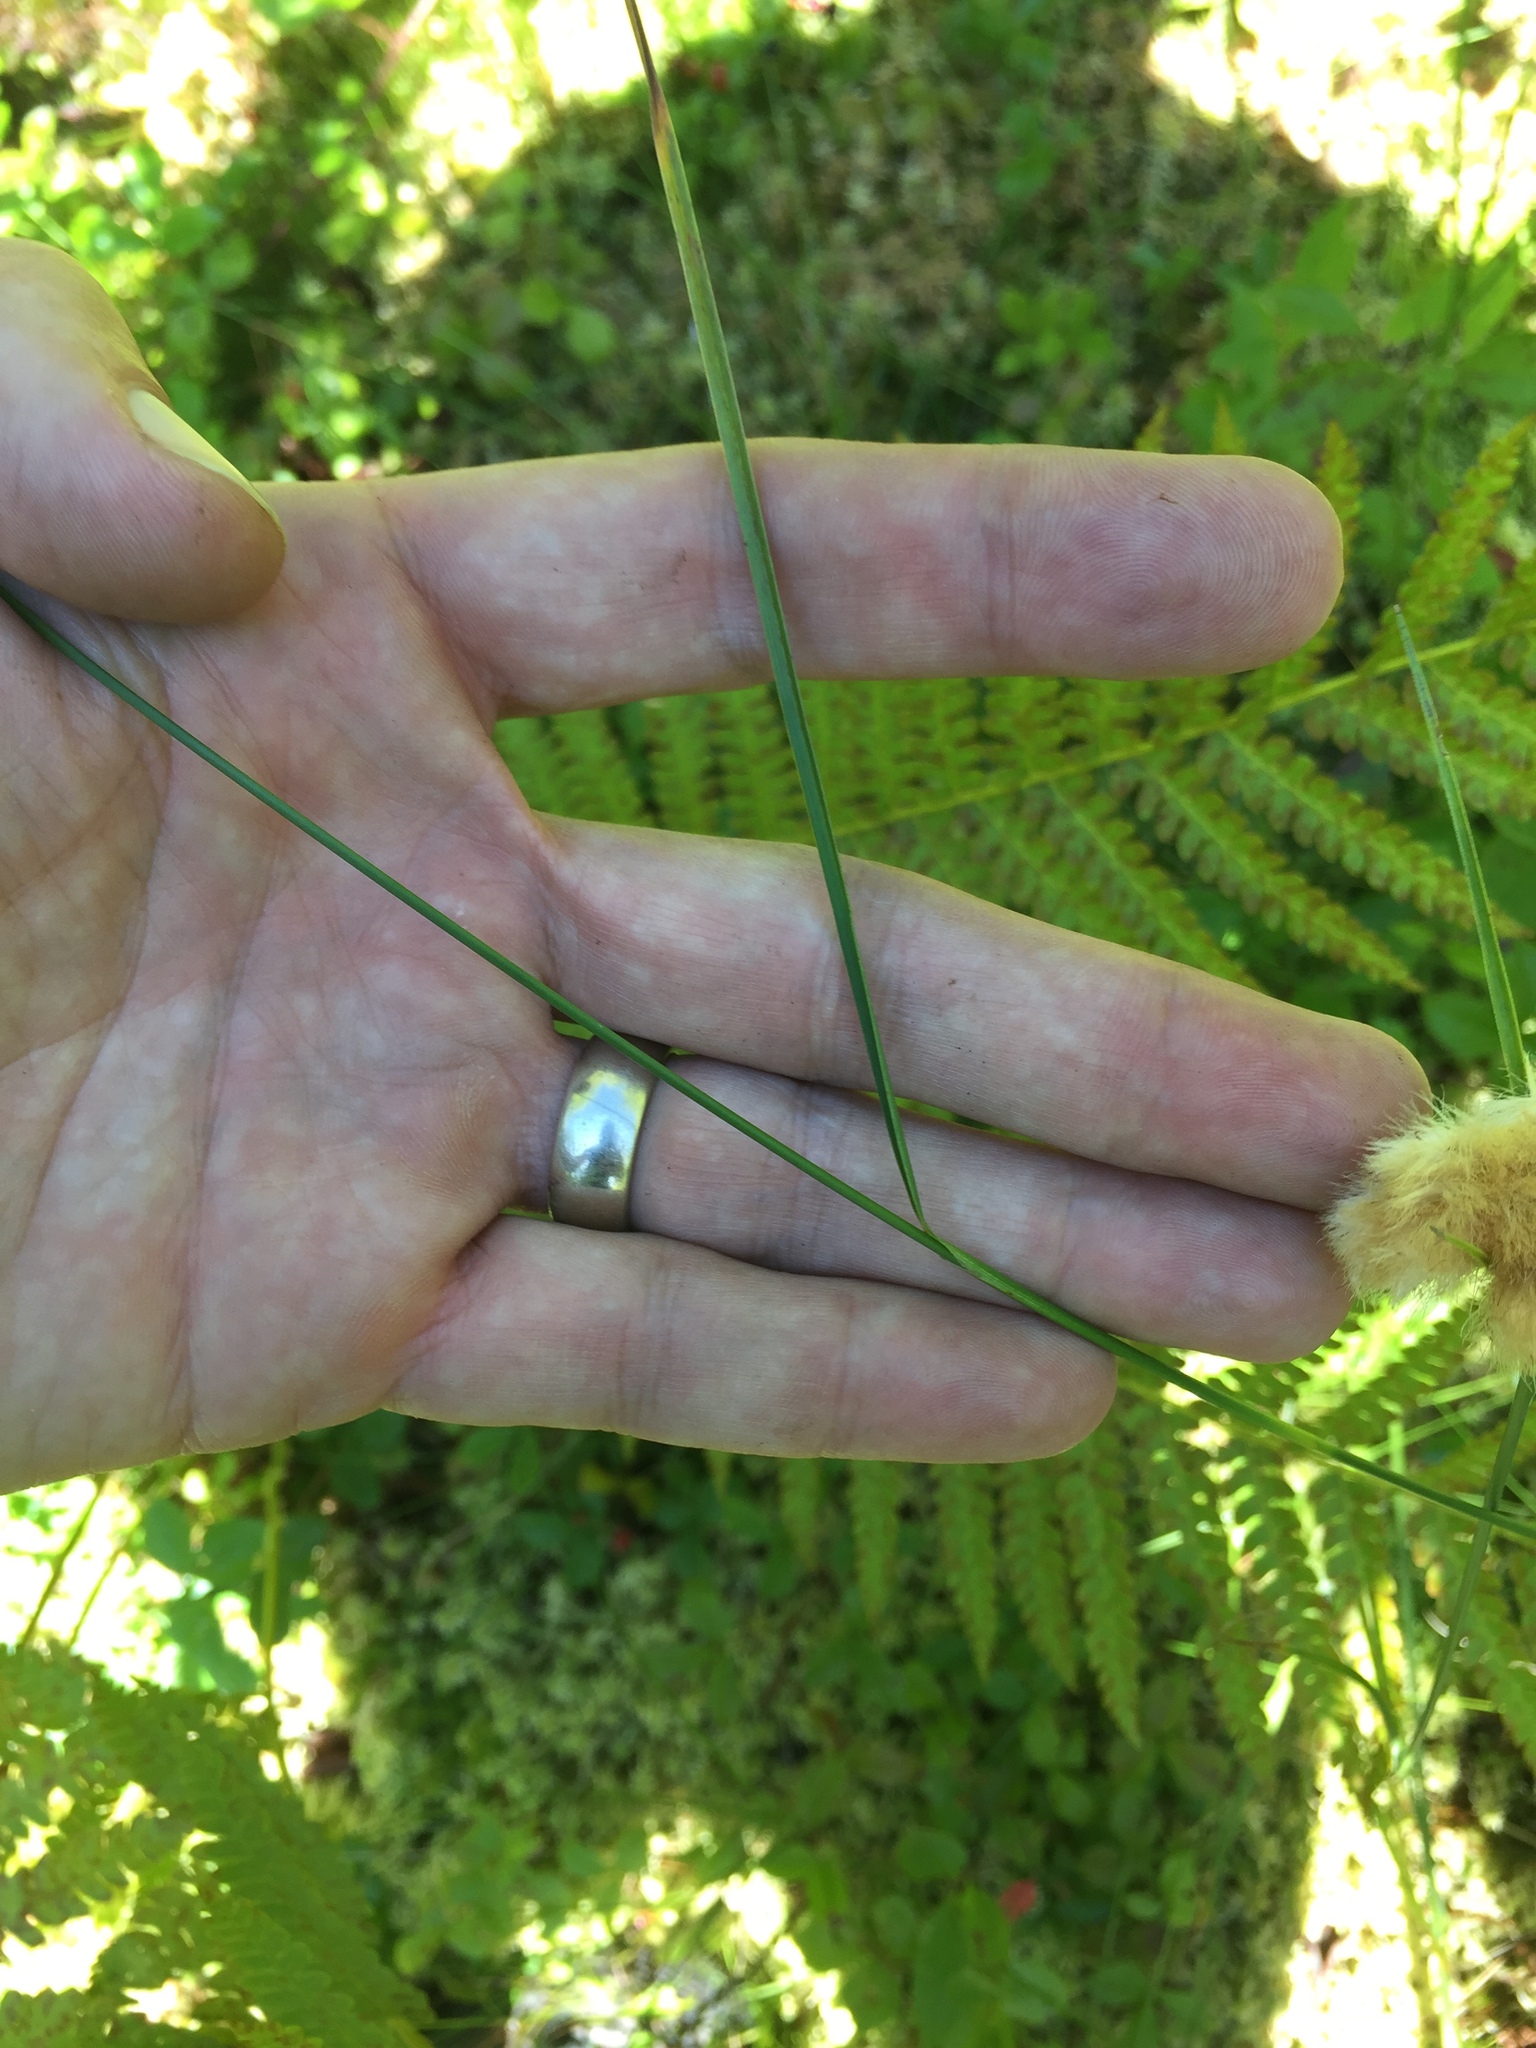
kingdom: Plantae
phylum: Tracheophyta
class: Liliopsida
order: Poales
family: Cyperaceae
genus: Eriophorum
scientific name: Eriophorum virginicum
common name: Tawny cottongrass
